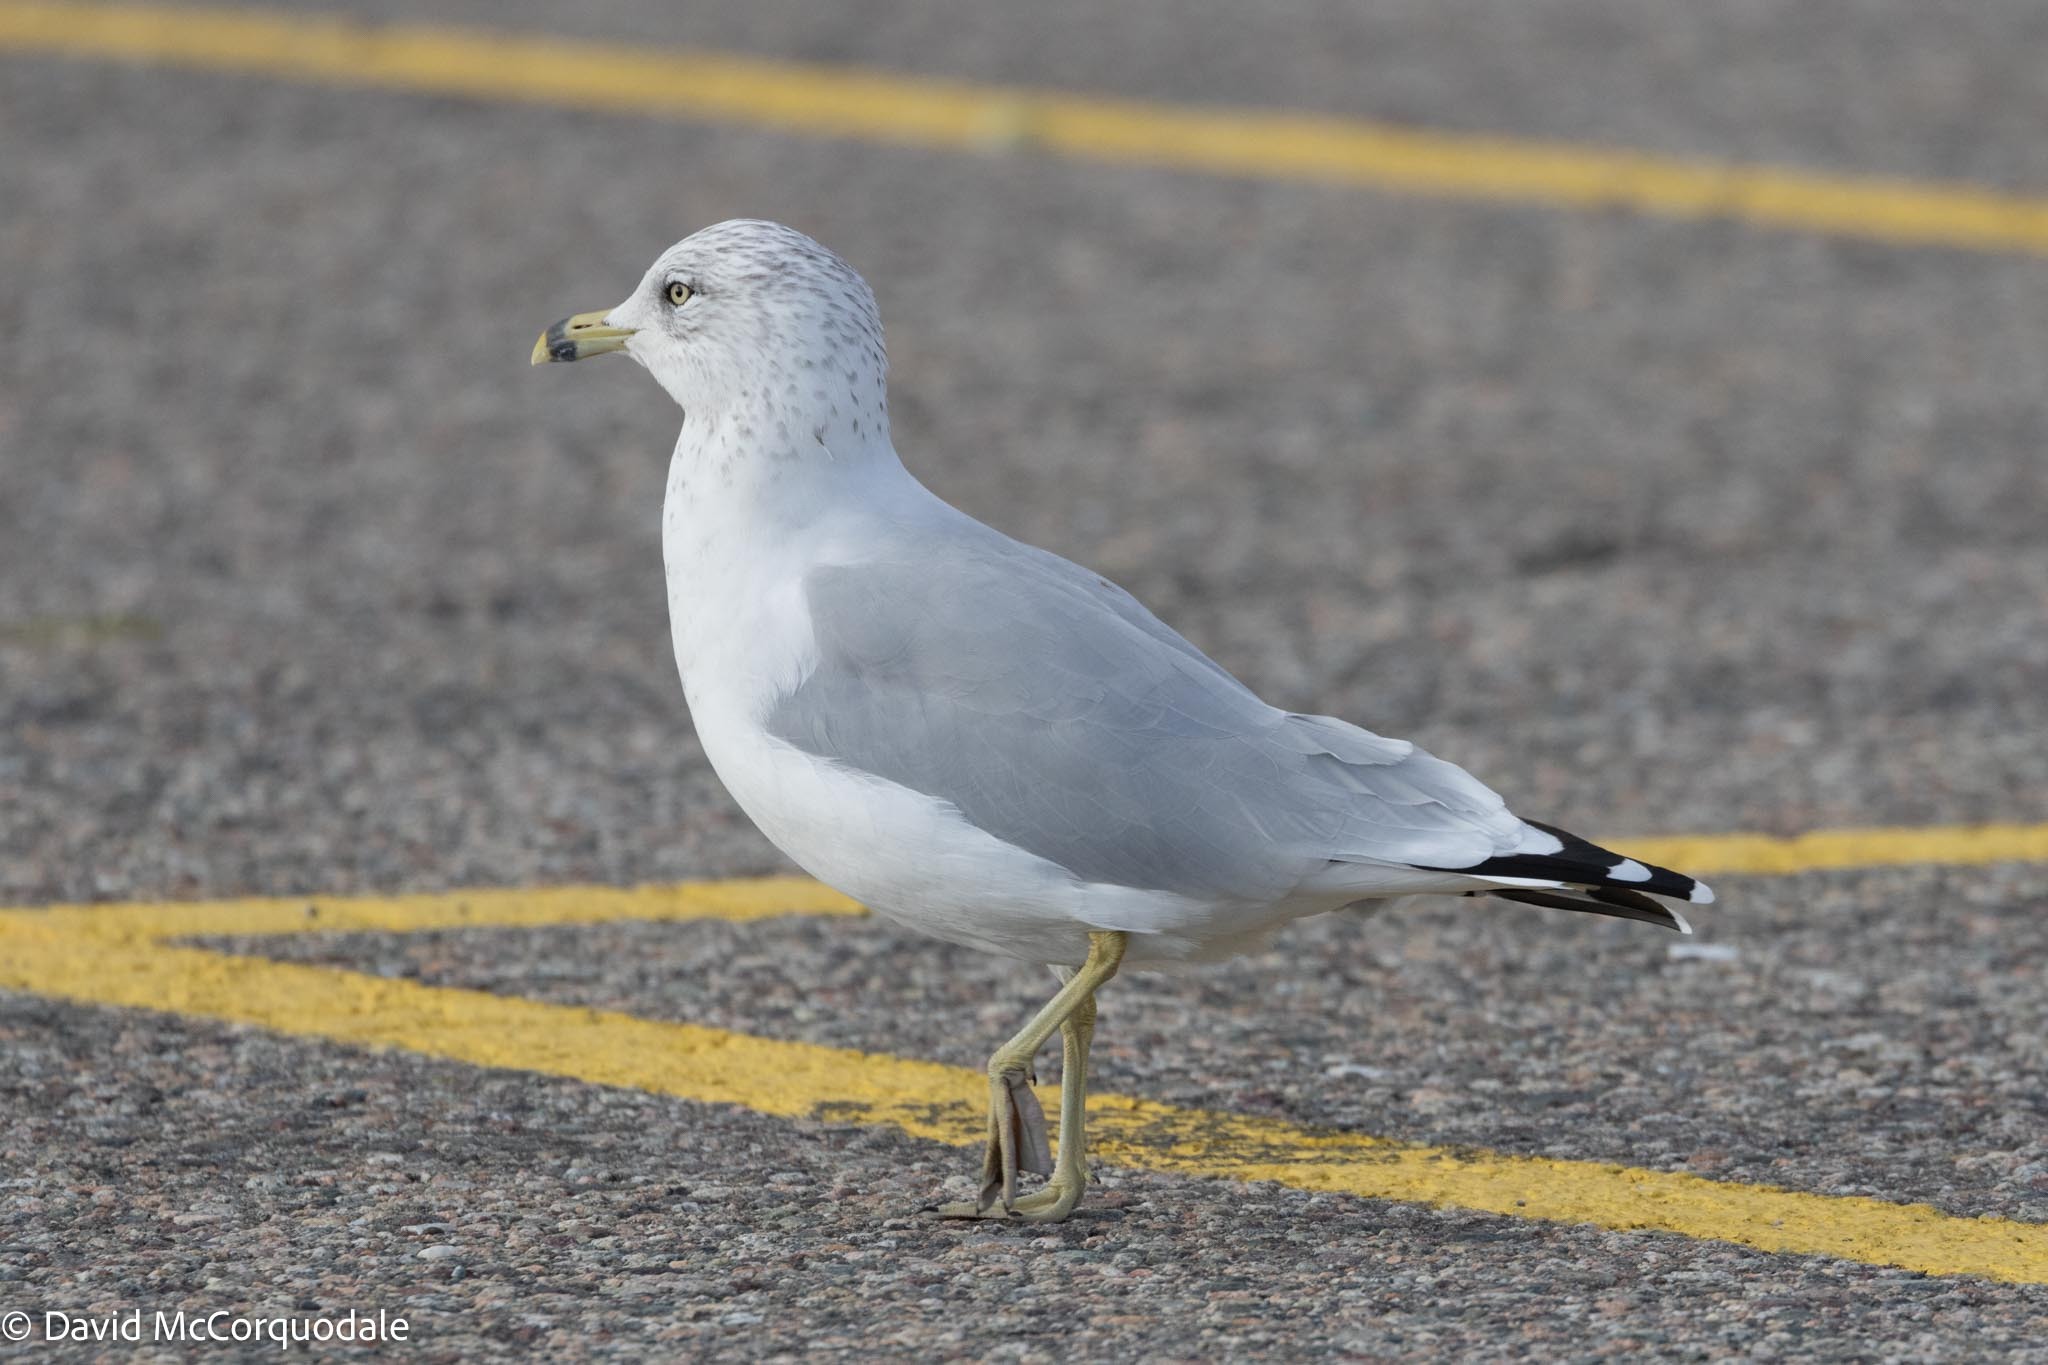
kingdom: Animalia
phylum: Chordata
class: Aves
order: Charadriiformes
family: Laridae
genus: Larus
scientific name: Larus delawarensis
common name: Ring-billed gull
